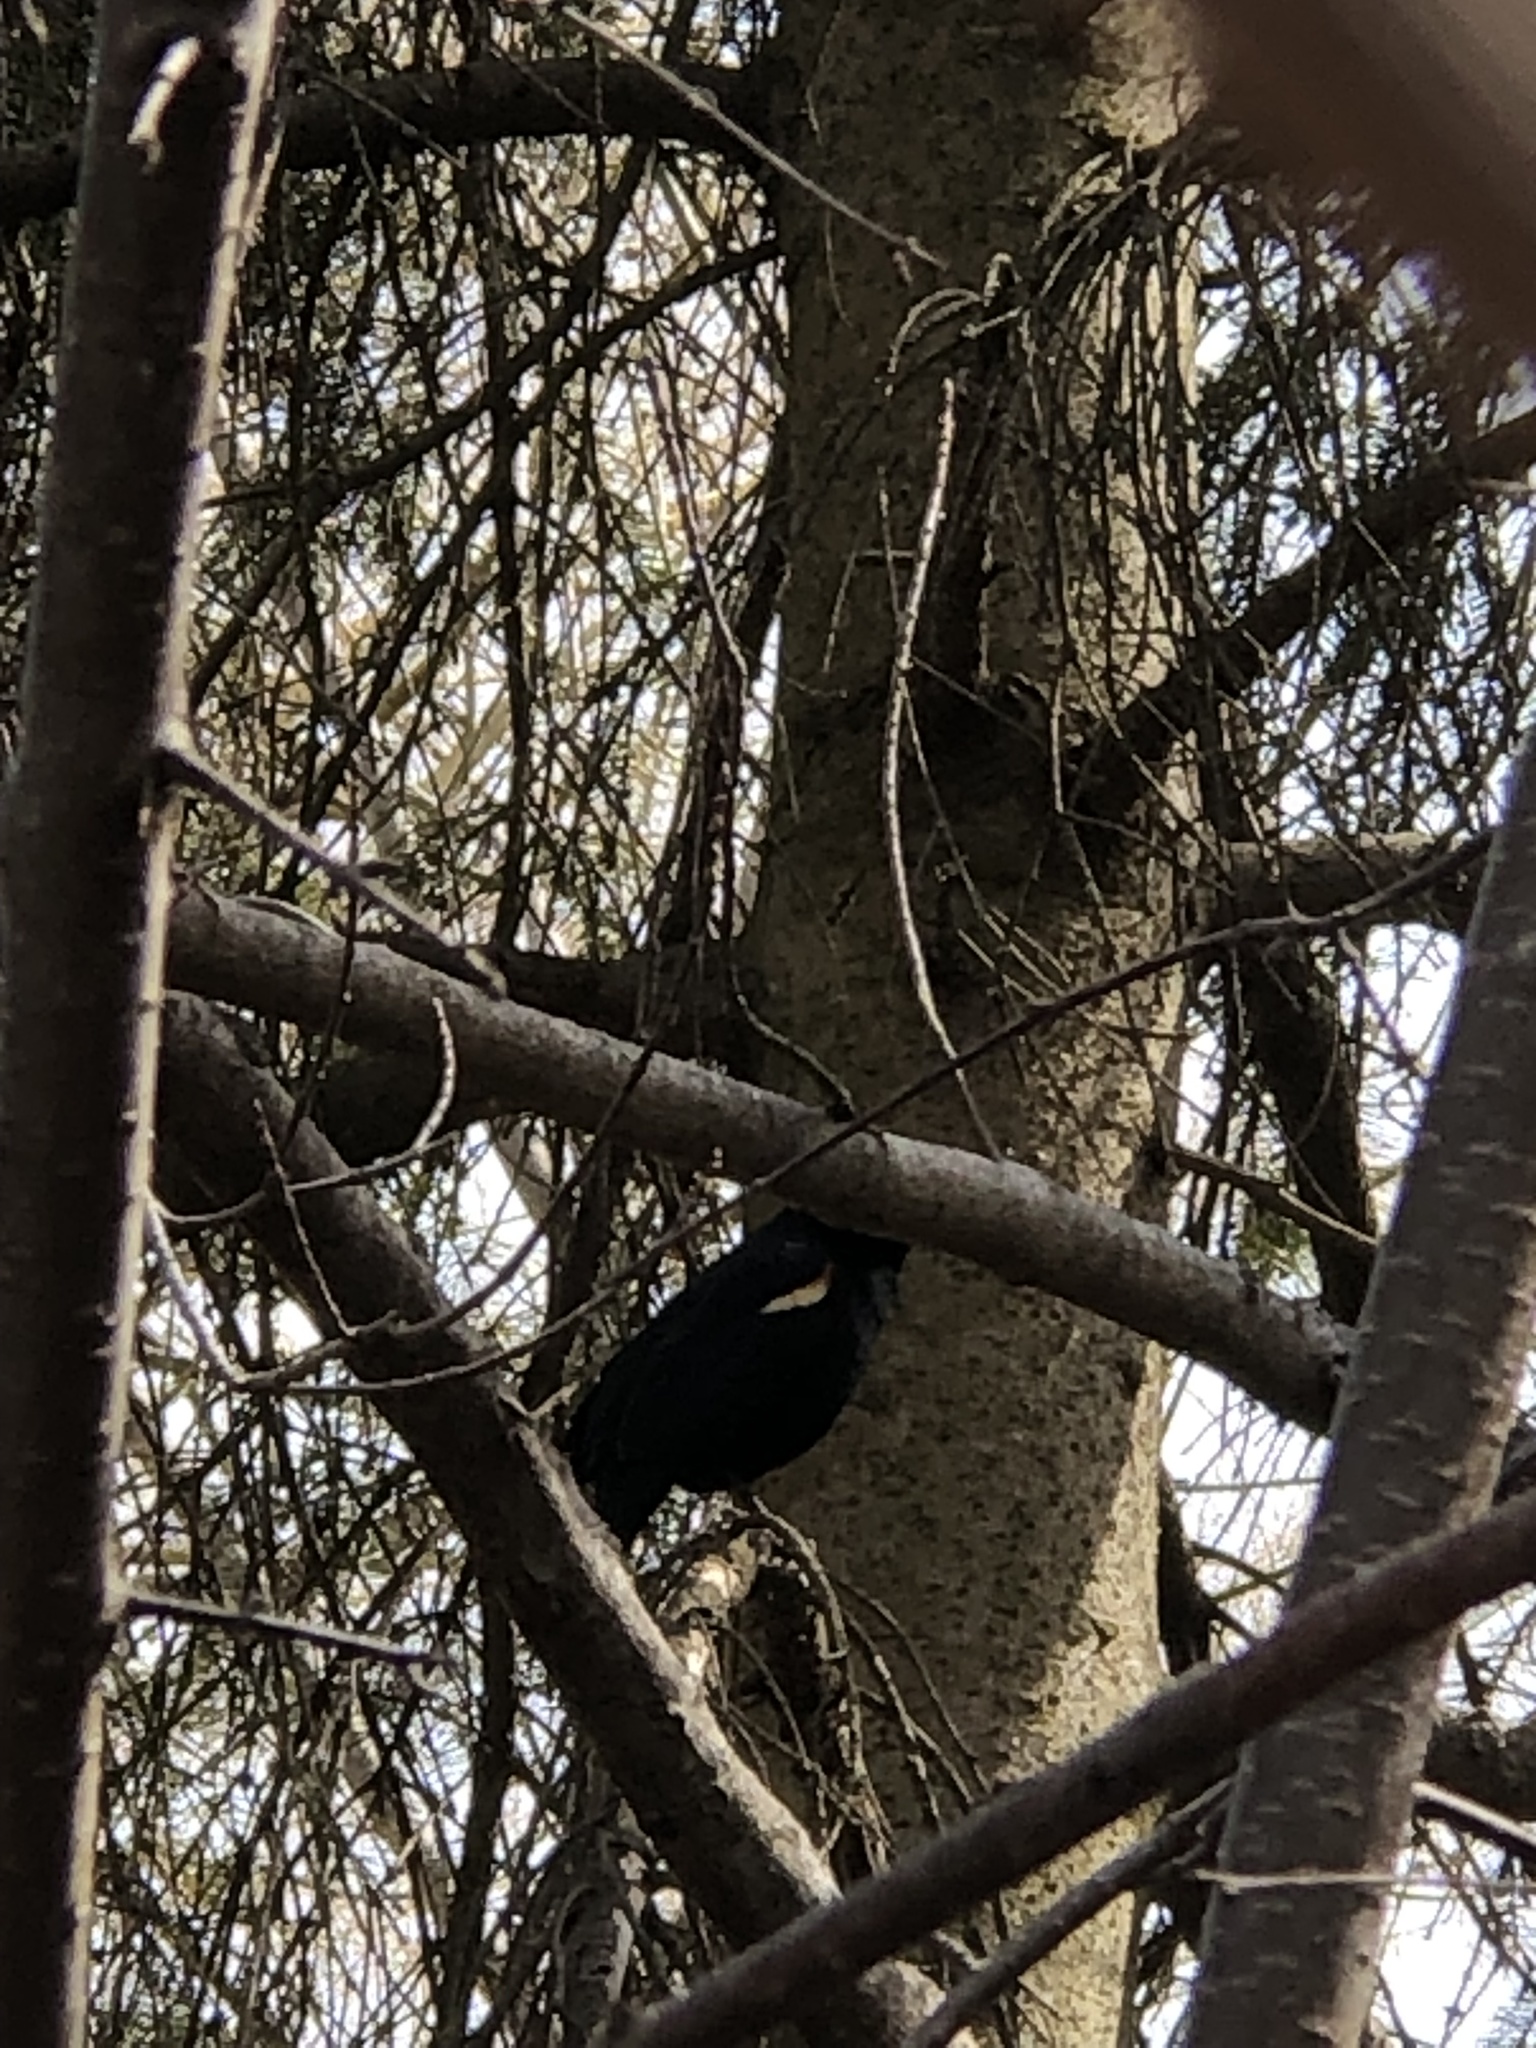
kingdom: Animalia
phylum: Chordata
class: Aves
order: Passeriformes
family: Icteridae
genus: Agelaius
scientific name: Agelaius phoeniceus
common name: Red-winged blackbird
